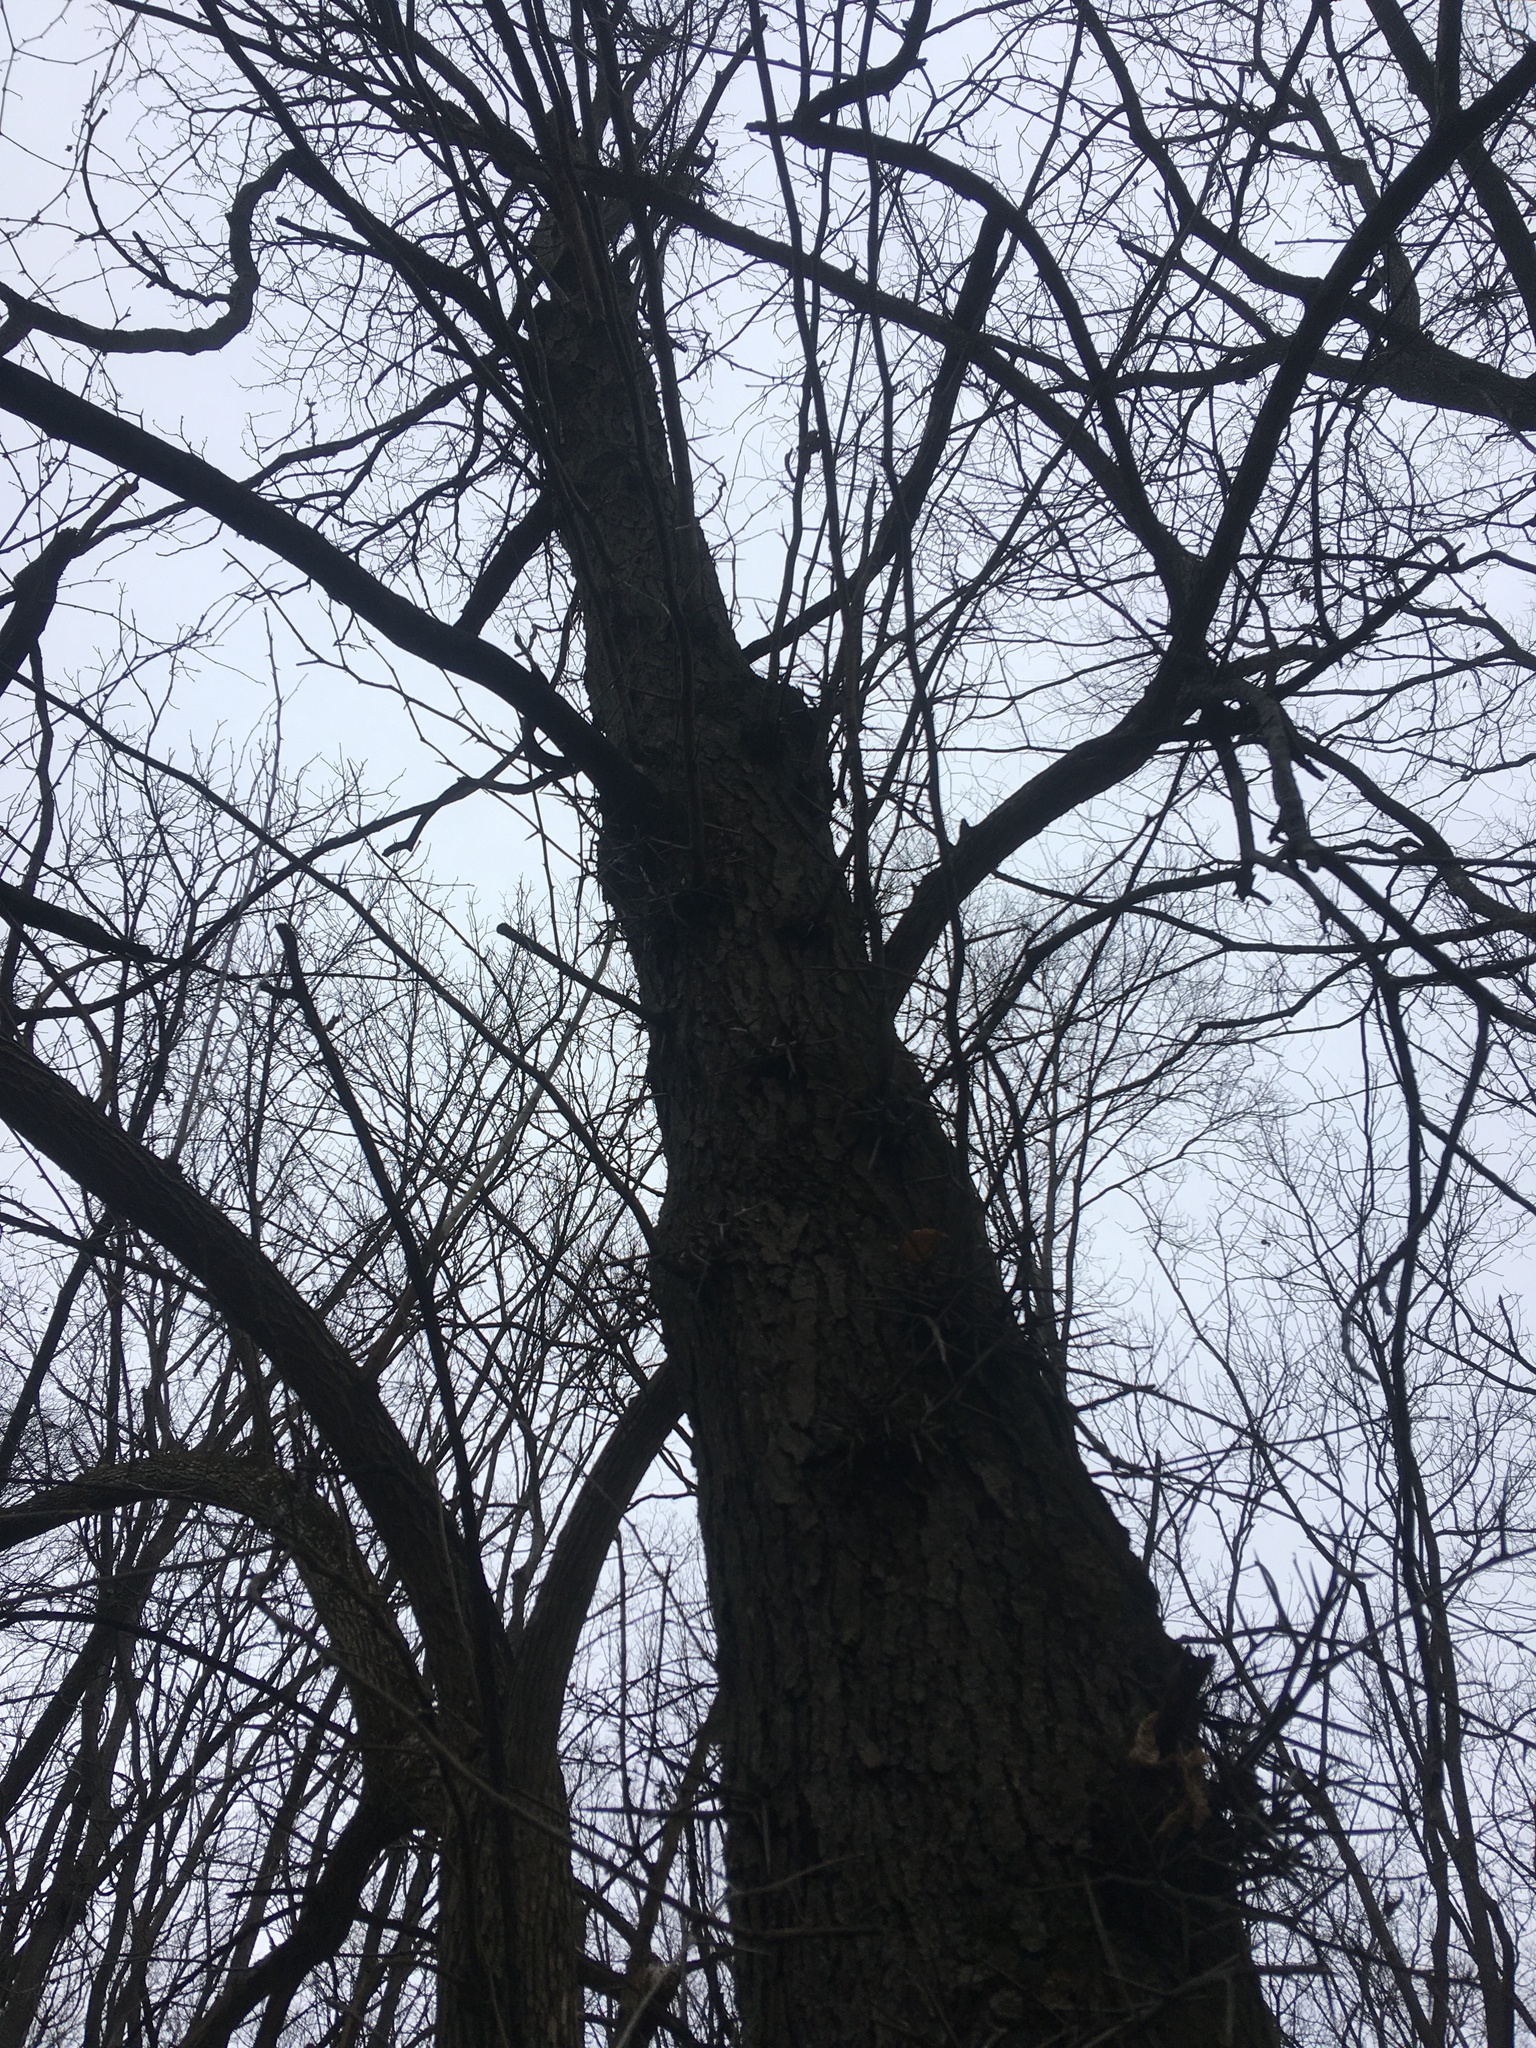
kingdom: Plantae
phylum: Tracheophyta
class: Magnoliopsida
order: Fabales
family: Fabaceae
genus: Gleditsia
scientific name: Gleditsia triacanthos
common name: Common honeylocust
